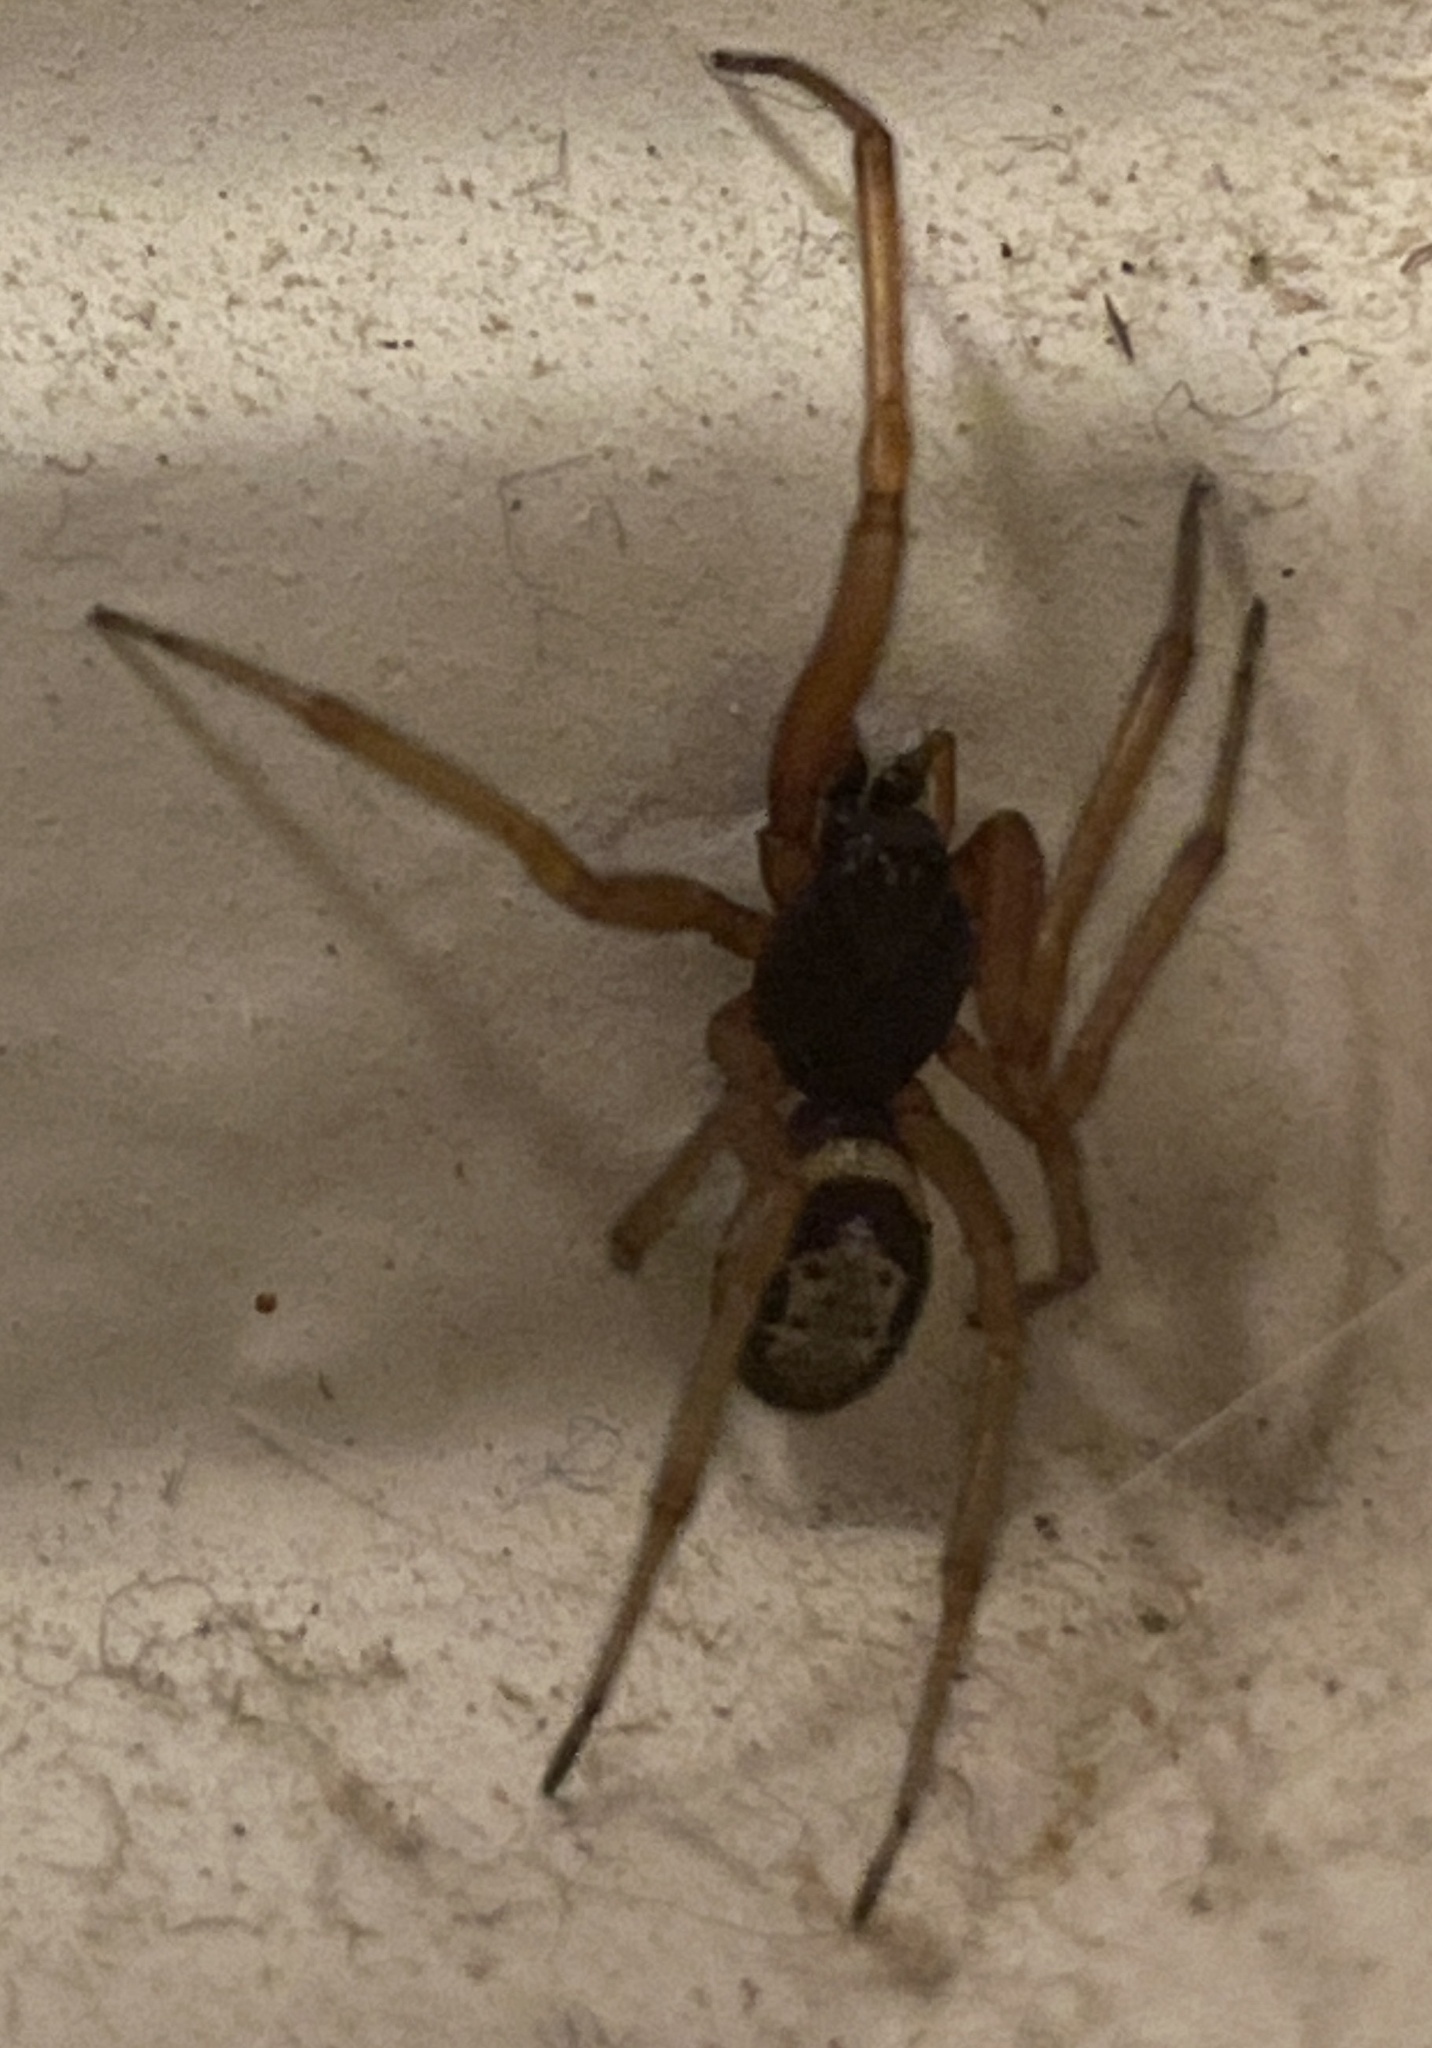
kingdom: Animalia
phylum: Arthropoda
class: Arachnida
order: Araneae
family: Theridiidae
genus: Steatoda
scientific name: Steatoda nobilis
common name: Cobweb weaver
